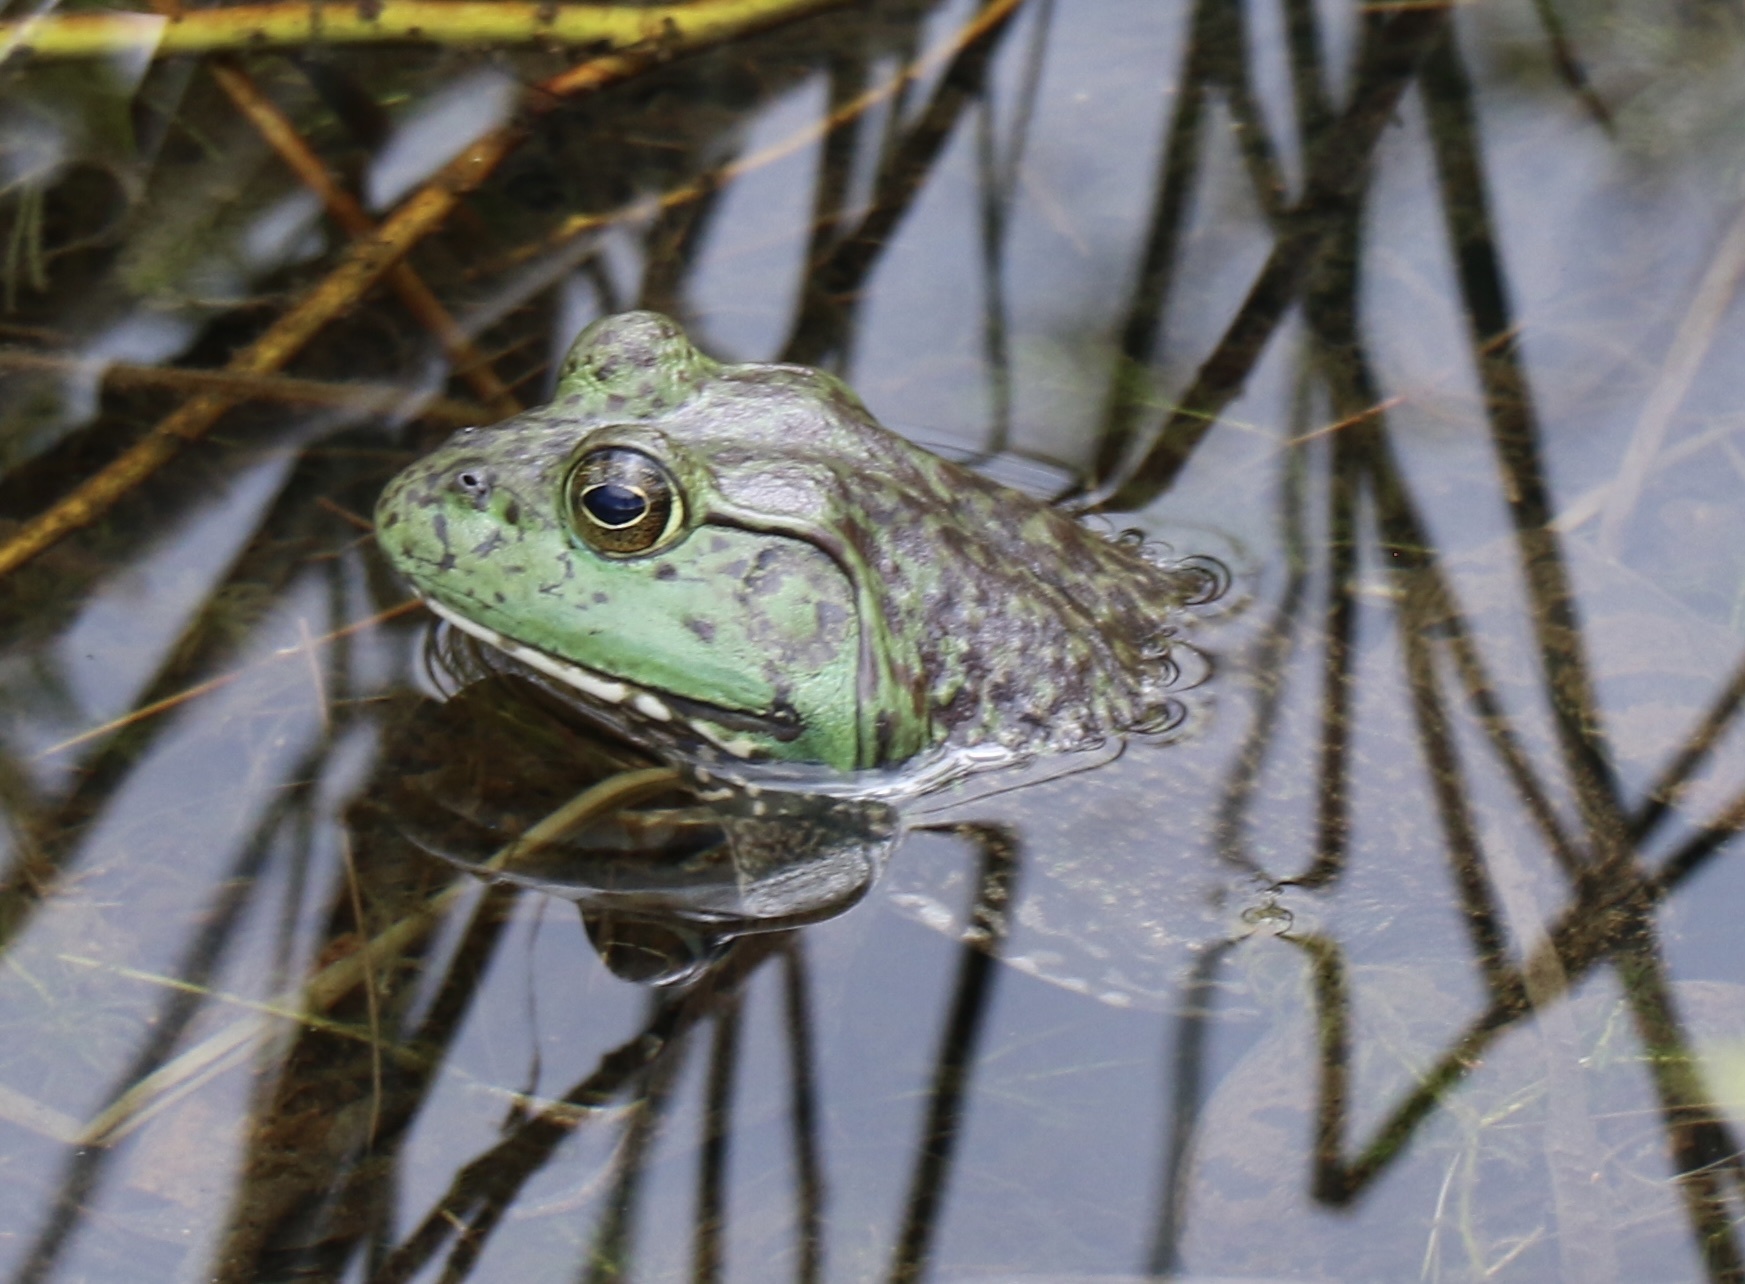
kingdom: Animalia
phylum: Chordata
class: Amphibia
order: Anura
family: Ranidae
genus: Lithobates
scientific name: Lithobates catesbeianus
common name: American bullfrog
